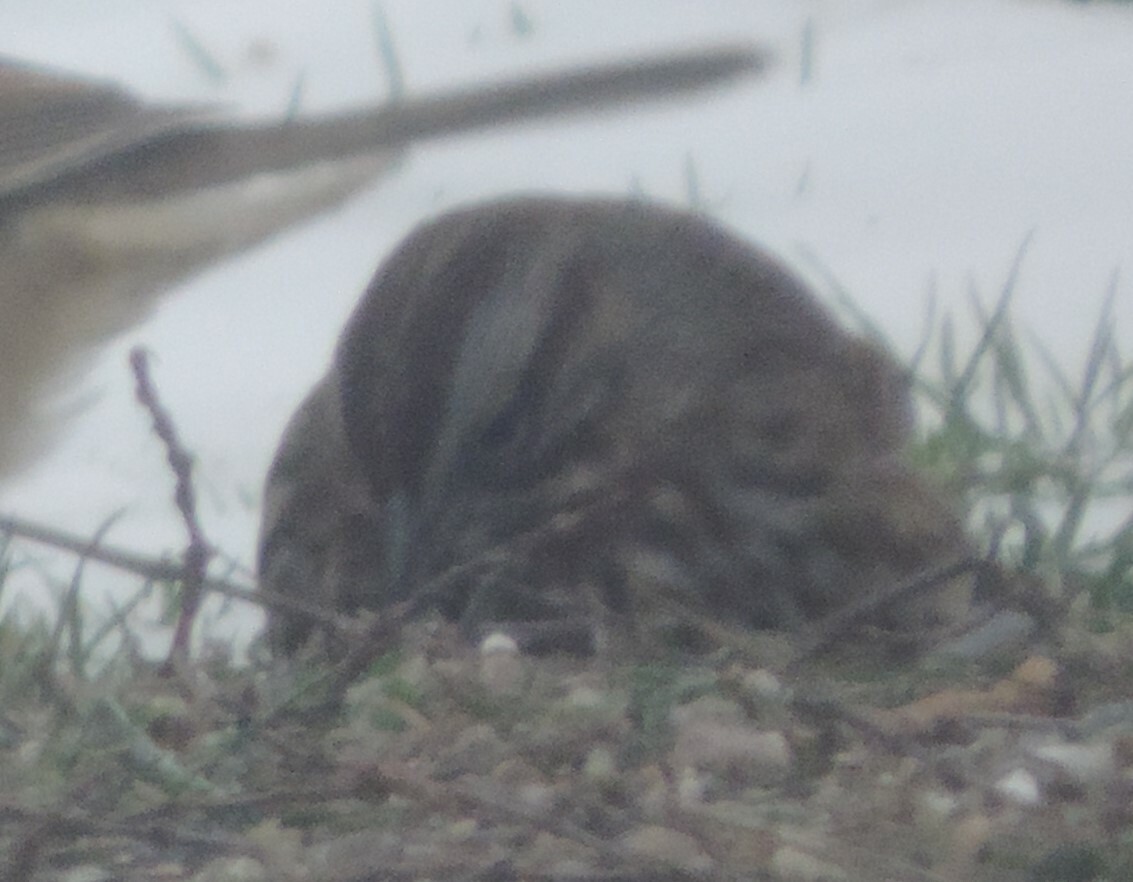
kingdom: Animalia
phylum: Chordata
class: Aves
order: Passeriformes
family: Passerellidae
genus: Melospiza
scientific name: Melospiza melodia
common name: Song sparrow
